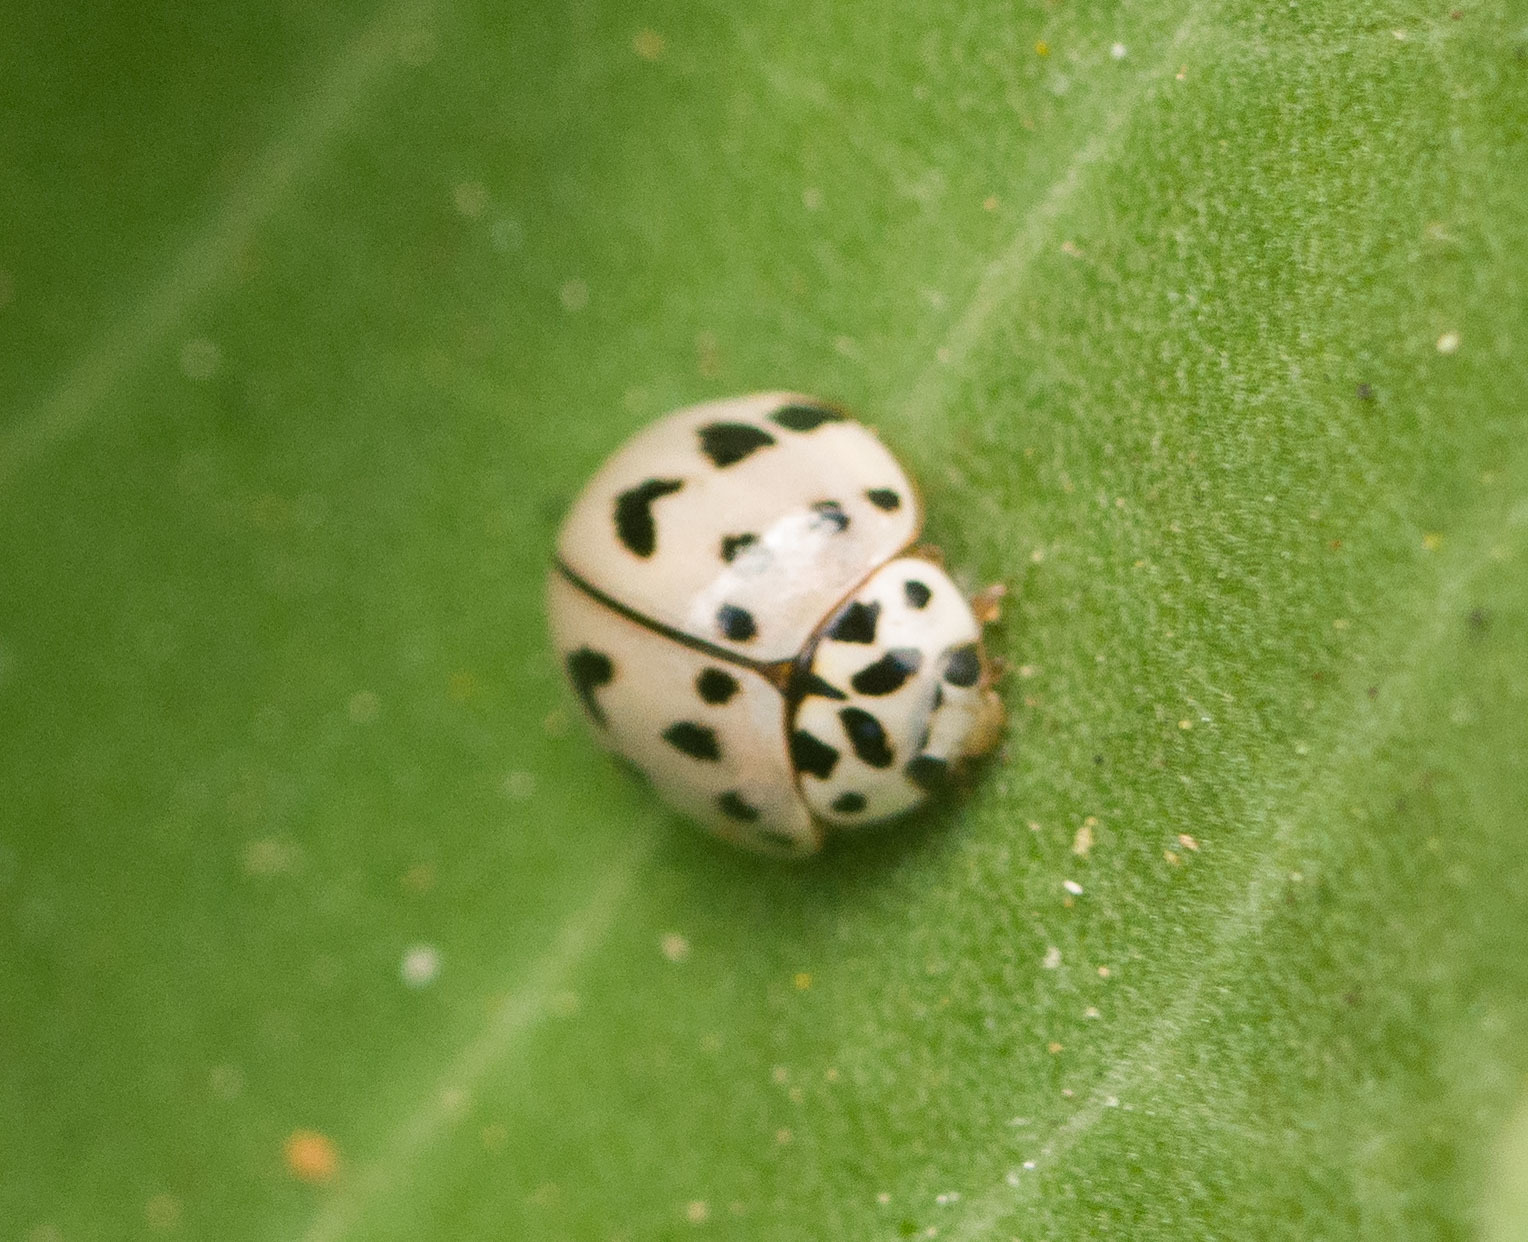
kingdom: Animalia
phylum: Arthropoda
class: Insecta
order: Coleoptera
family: Coccinellidae
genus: Olla
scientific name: Olla v-nigrum
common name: Ashy gray lady beetle
